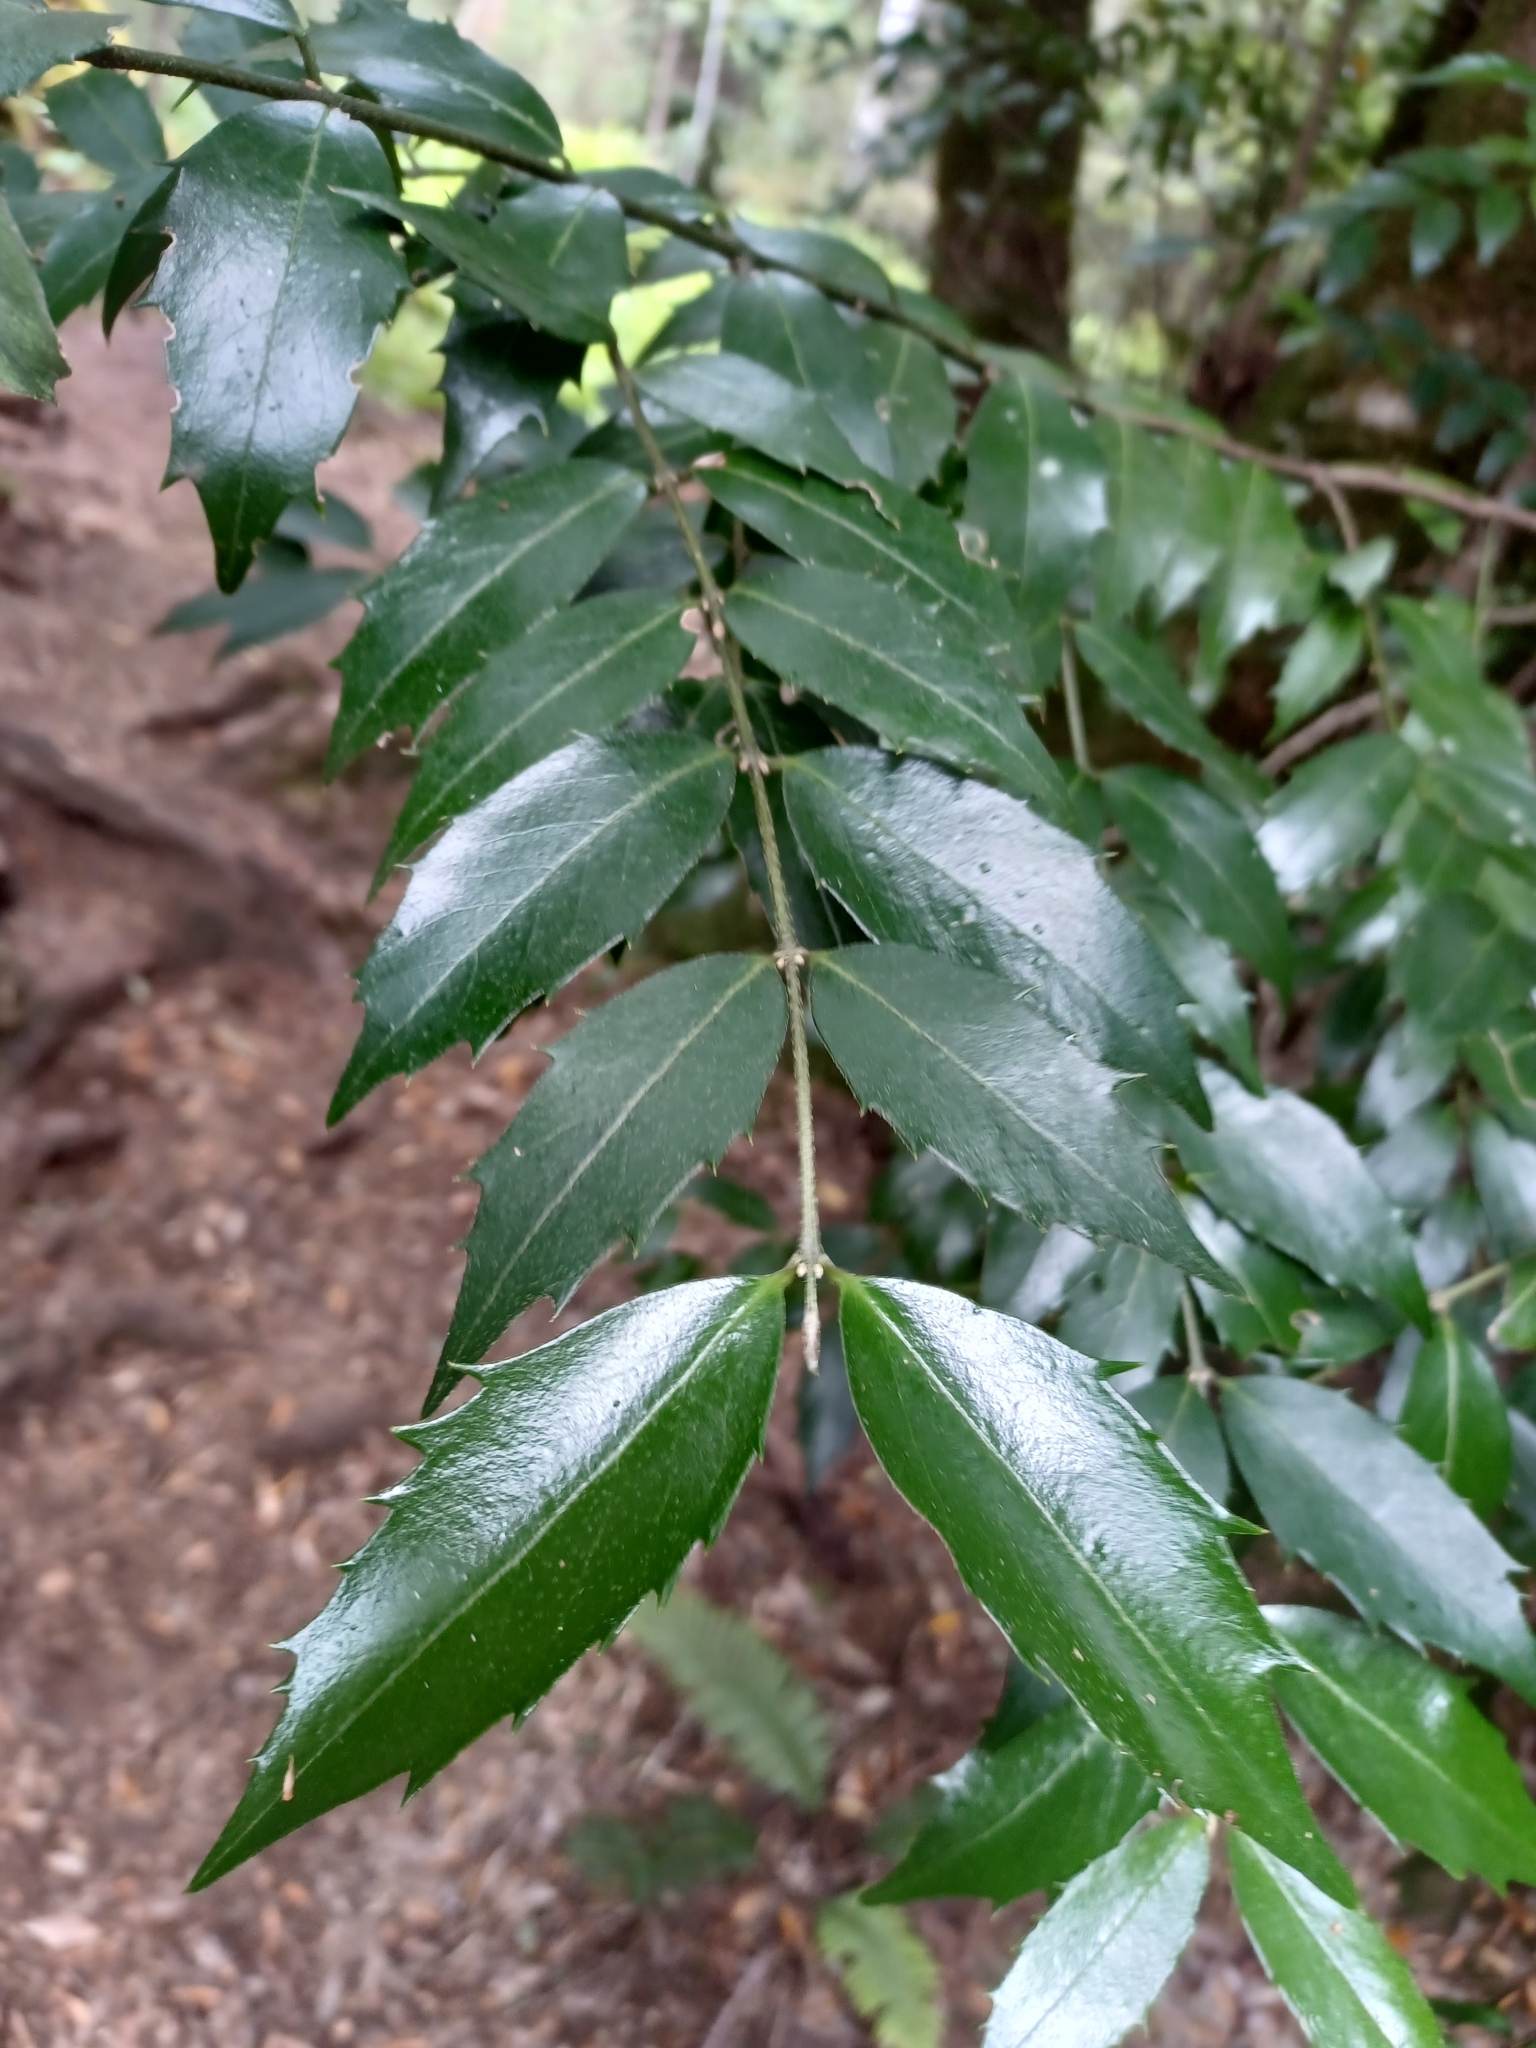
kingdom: Plantae
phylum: Tracheophyta
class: Magnoliopsida
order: Laurales
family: Atherospermataceae
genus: Atherosperma
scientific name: Atherosperma moschatum
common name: Tasmanian-sassafras
